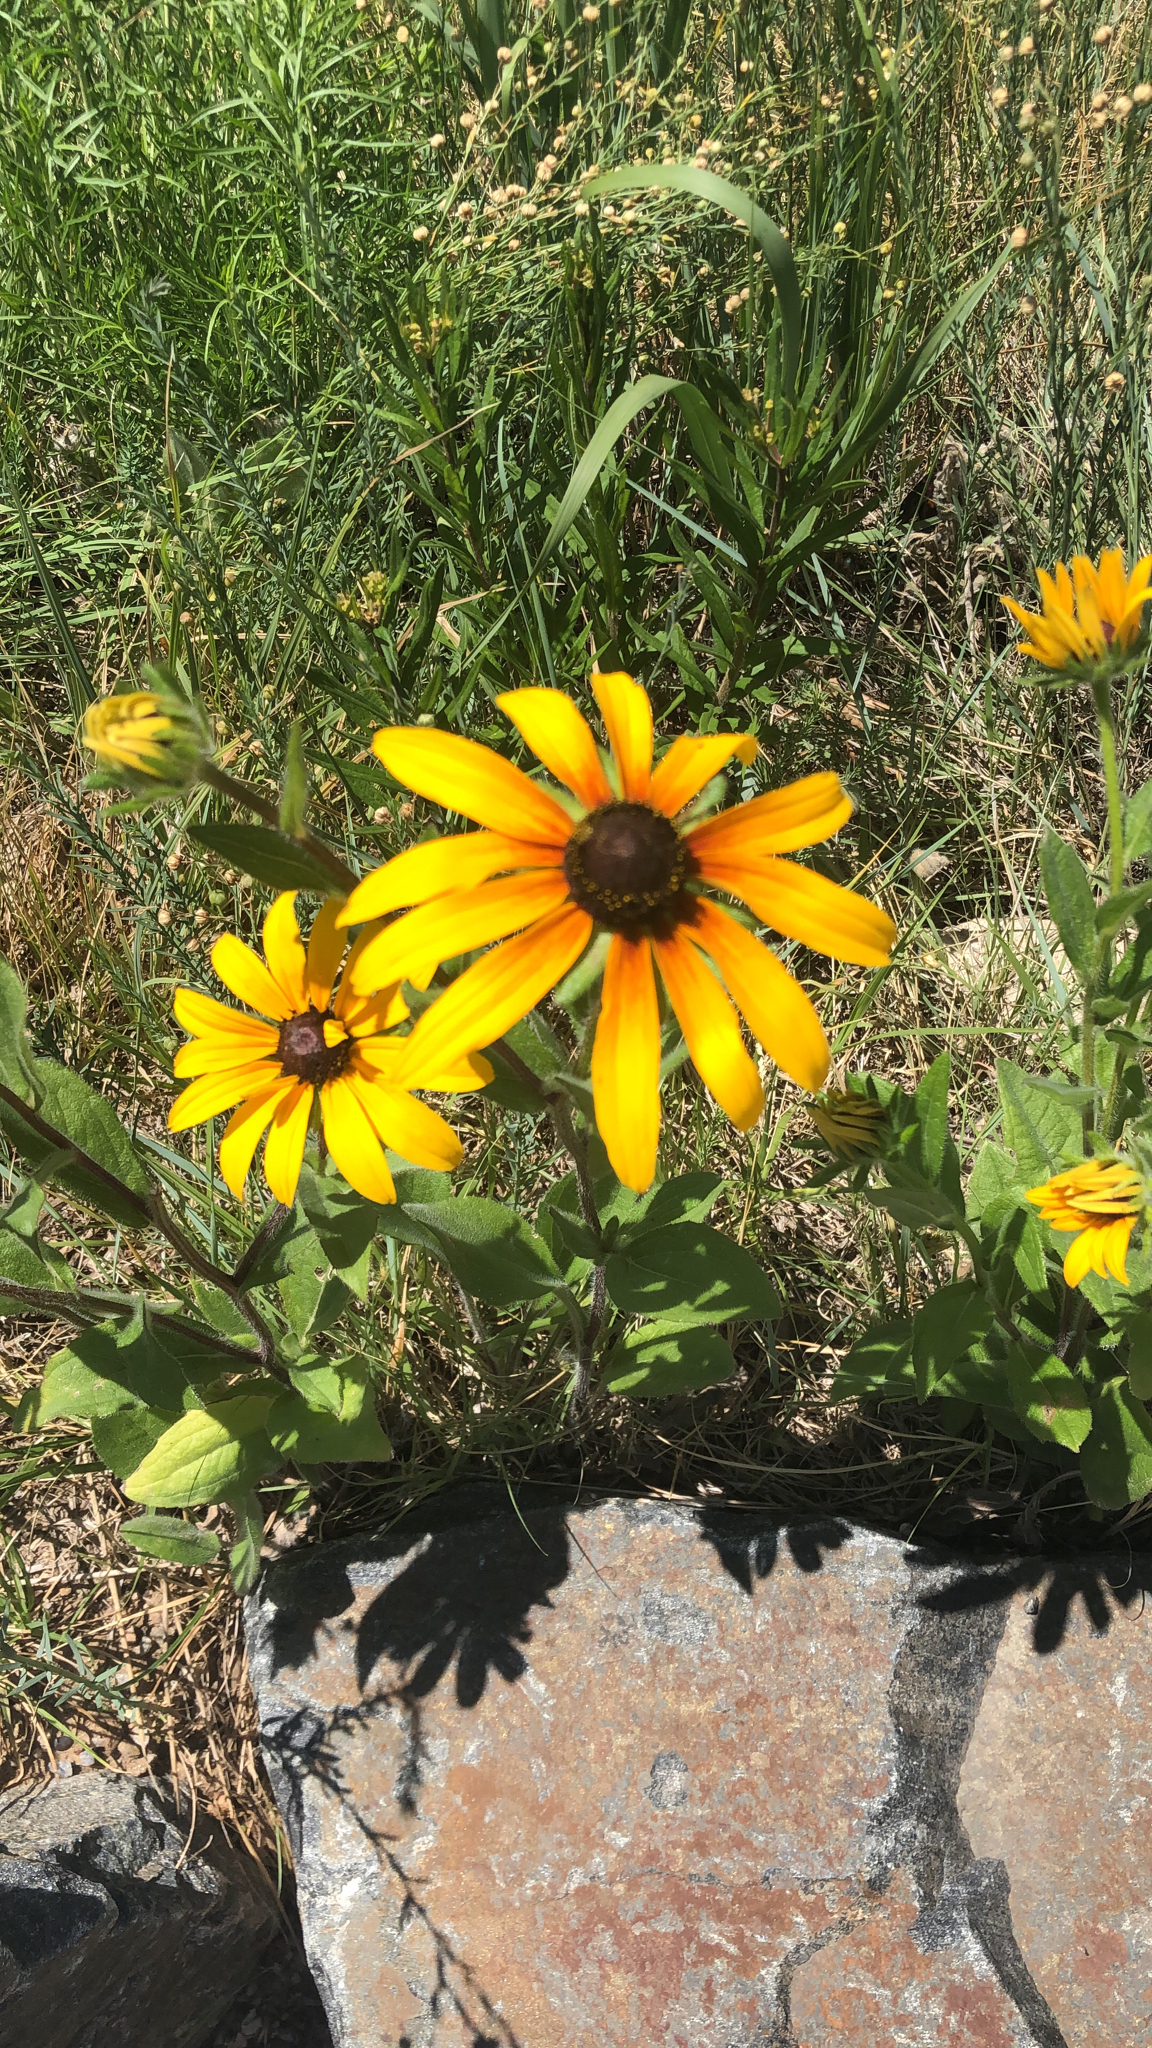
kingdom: Plantae
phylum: Tracheophyta
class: Magnoliopsida
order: Asterales
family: Asteraceae
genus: Rudbeckia
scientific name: Rudbeckia hirta
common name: Black-eyed-susan
